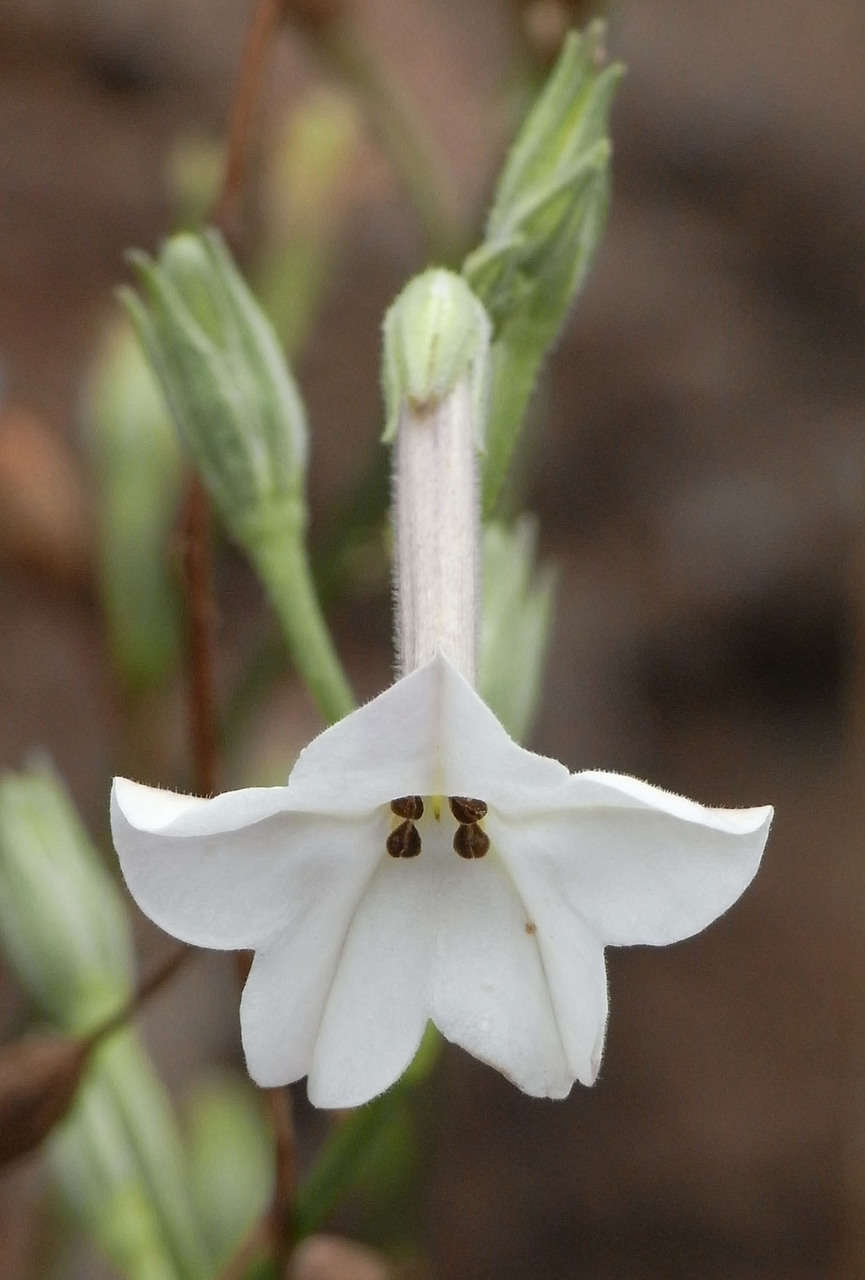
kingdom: Plantae
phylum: Tracheophyta
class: Magnoliopsida
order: Solanales
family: Solanaceae
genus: Nicotiana
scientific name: Nicotiana suaveolens
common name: Australian tobacco
